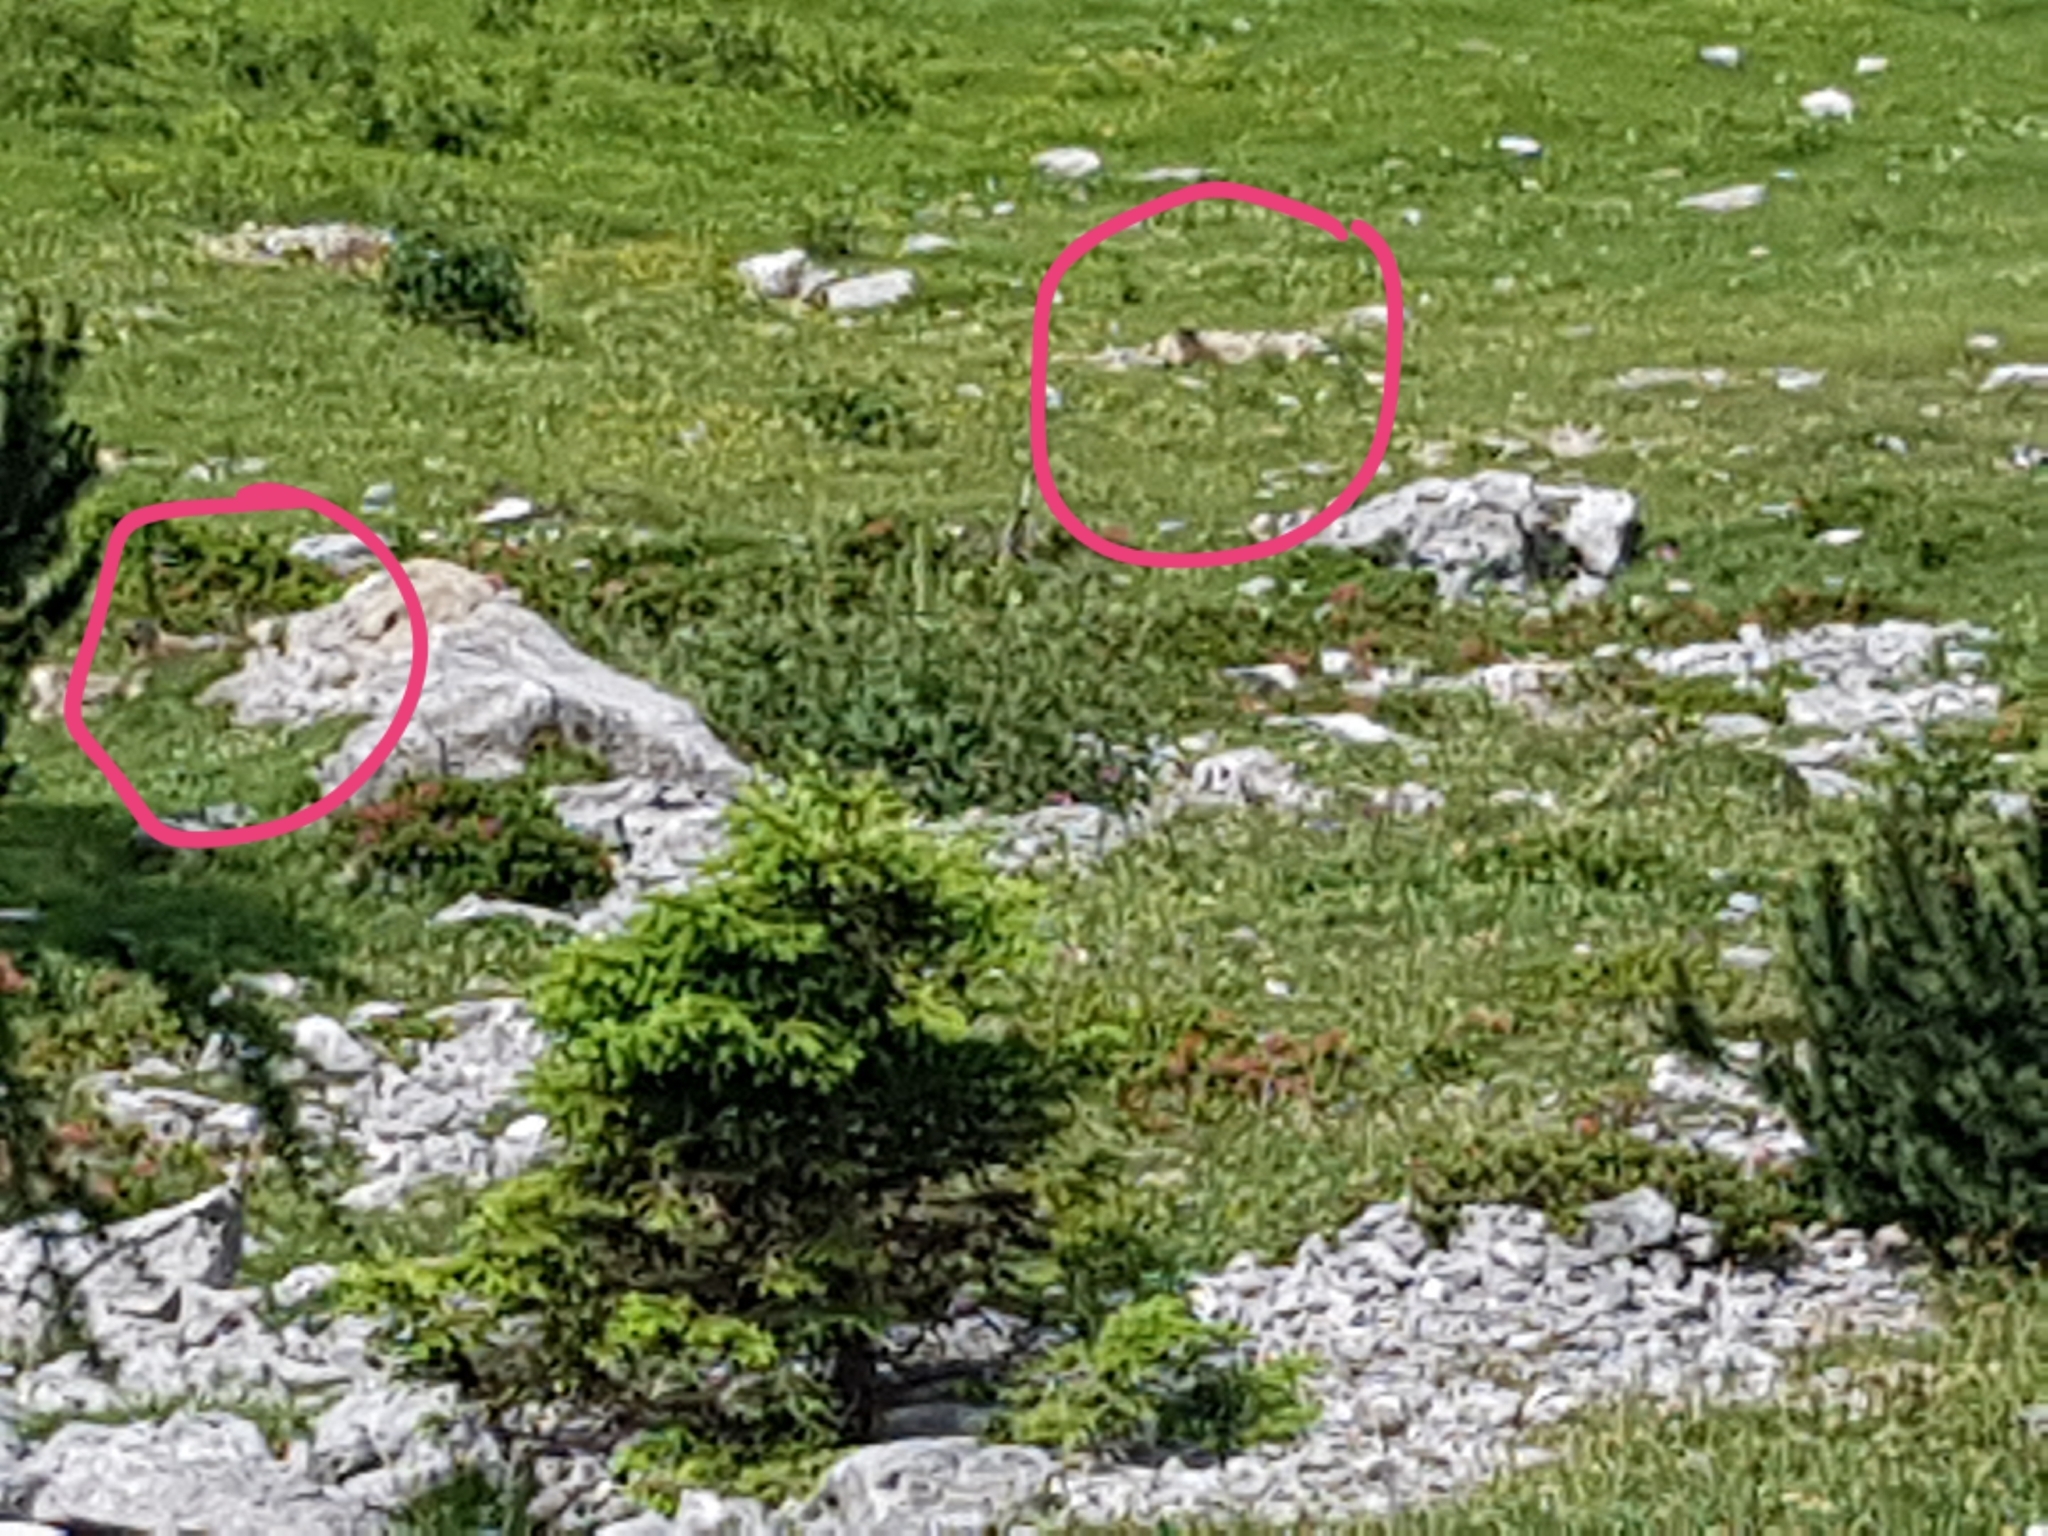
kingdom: Animalia
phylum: Chordata
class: Mammalia
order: Rodentia
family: Sciuridae
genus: Marmota
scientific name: Marmota marmota
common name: Alpine marmot
